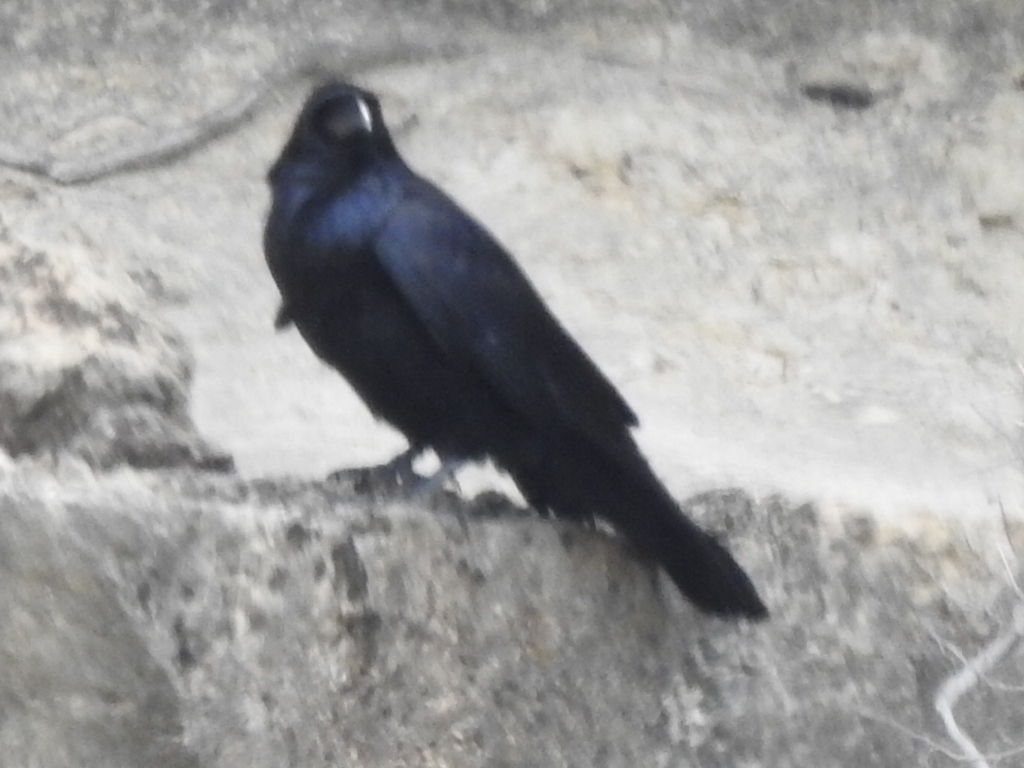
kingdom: Animalia
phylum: Chordata
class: Aves
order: Passeriformes
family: Corvidae
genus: Corvus
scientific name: Corvus corax
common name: Common raven
